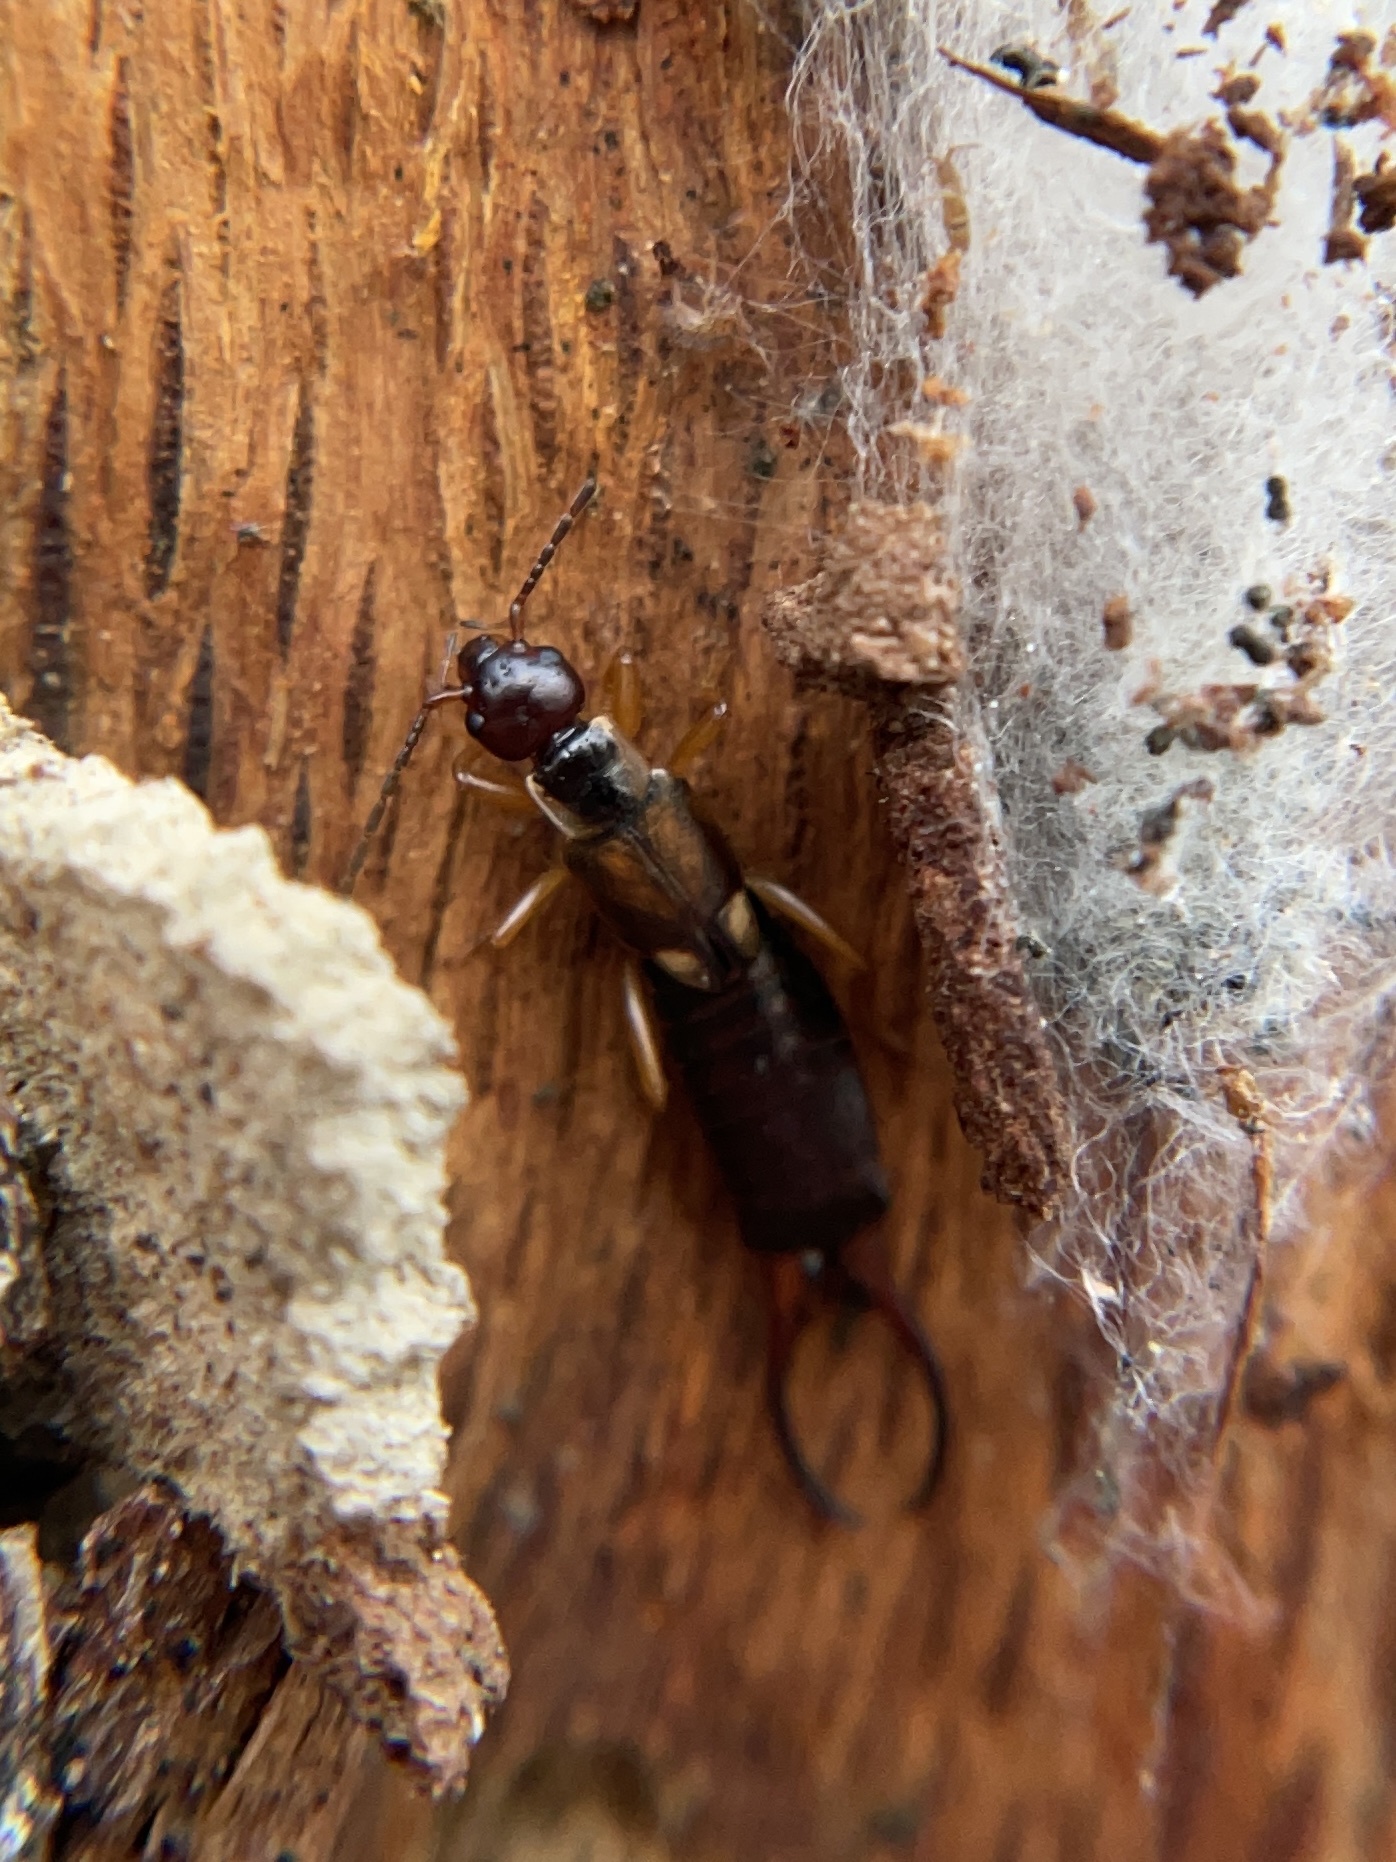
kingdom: Animalia
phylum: Arthropoda
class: Insecta
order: Dermaptera
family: Forficulidae
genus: Forficula
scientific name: Forficula
